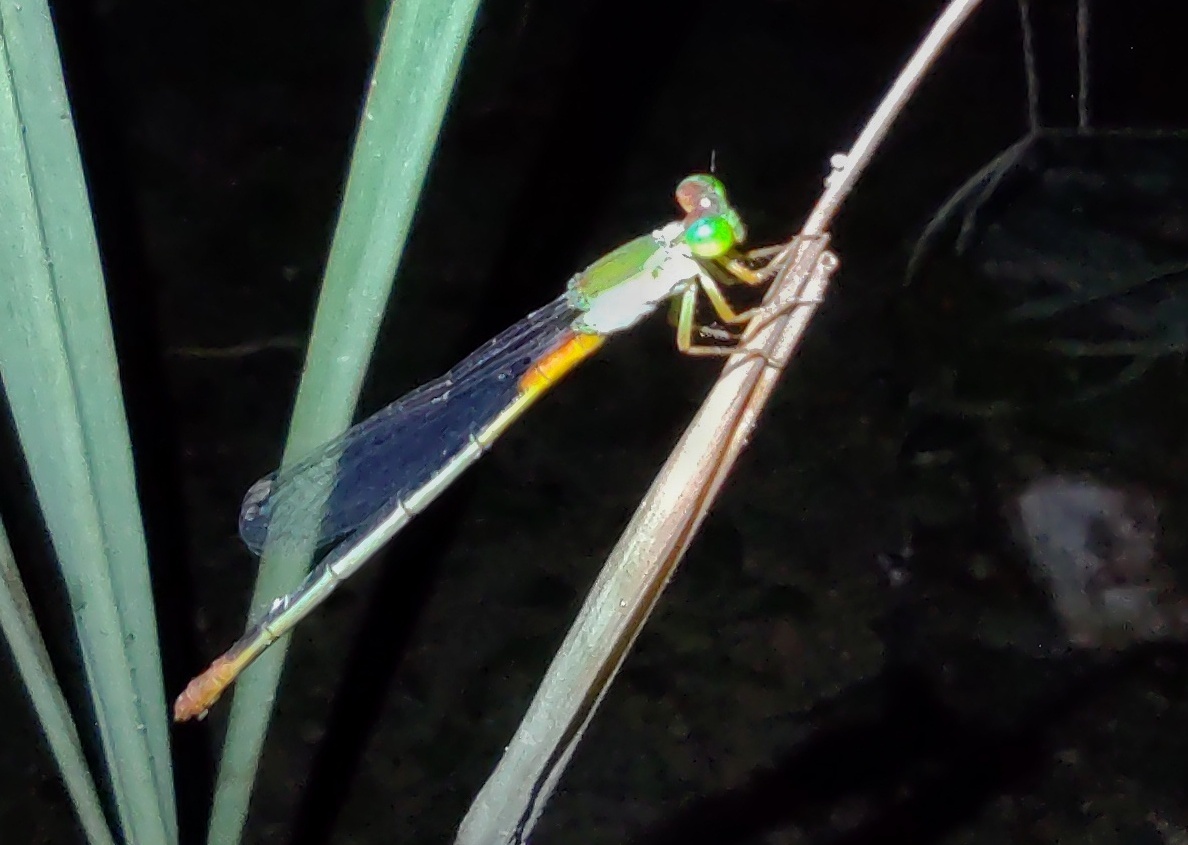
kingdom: Animalia
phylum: Arthropoda
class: Insecta
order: Odonata
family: Coenagrionidae
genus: Ceriagrion
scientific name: Ceriagrion cerinorubellum
